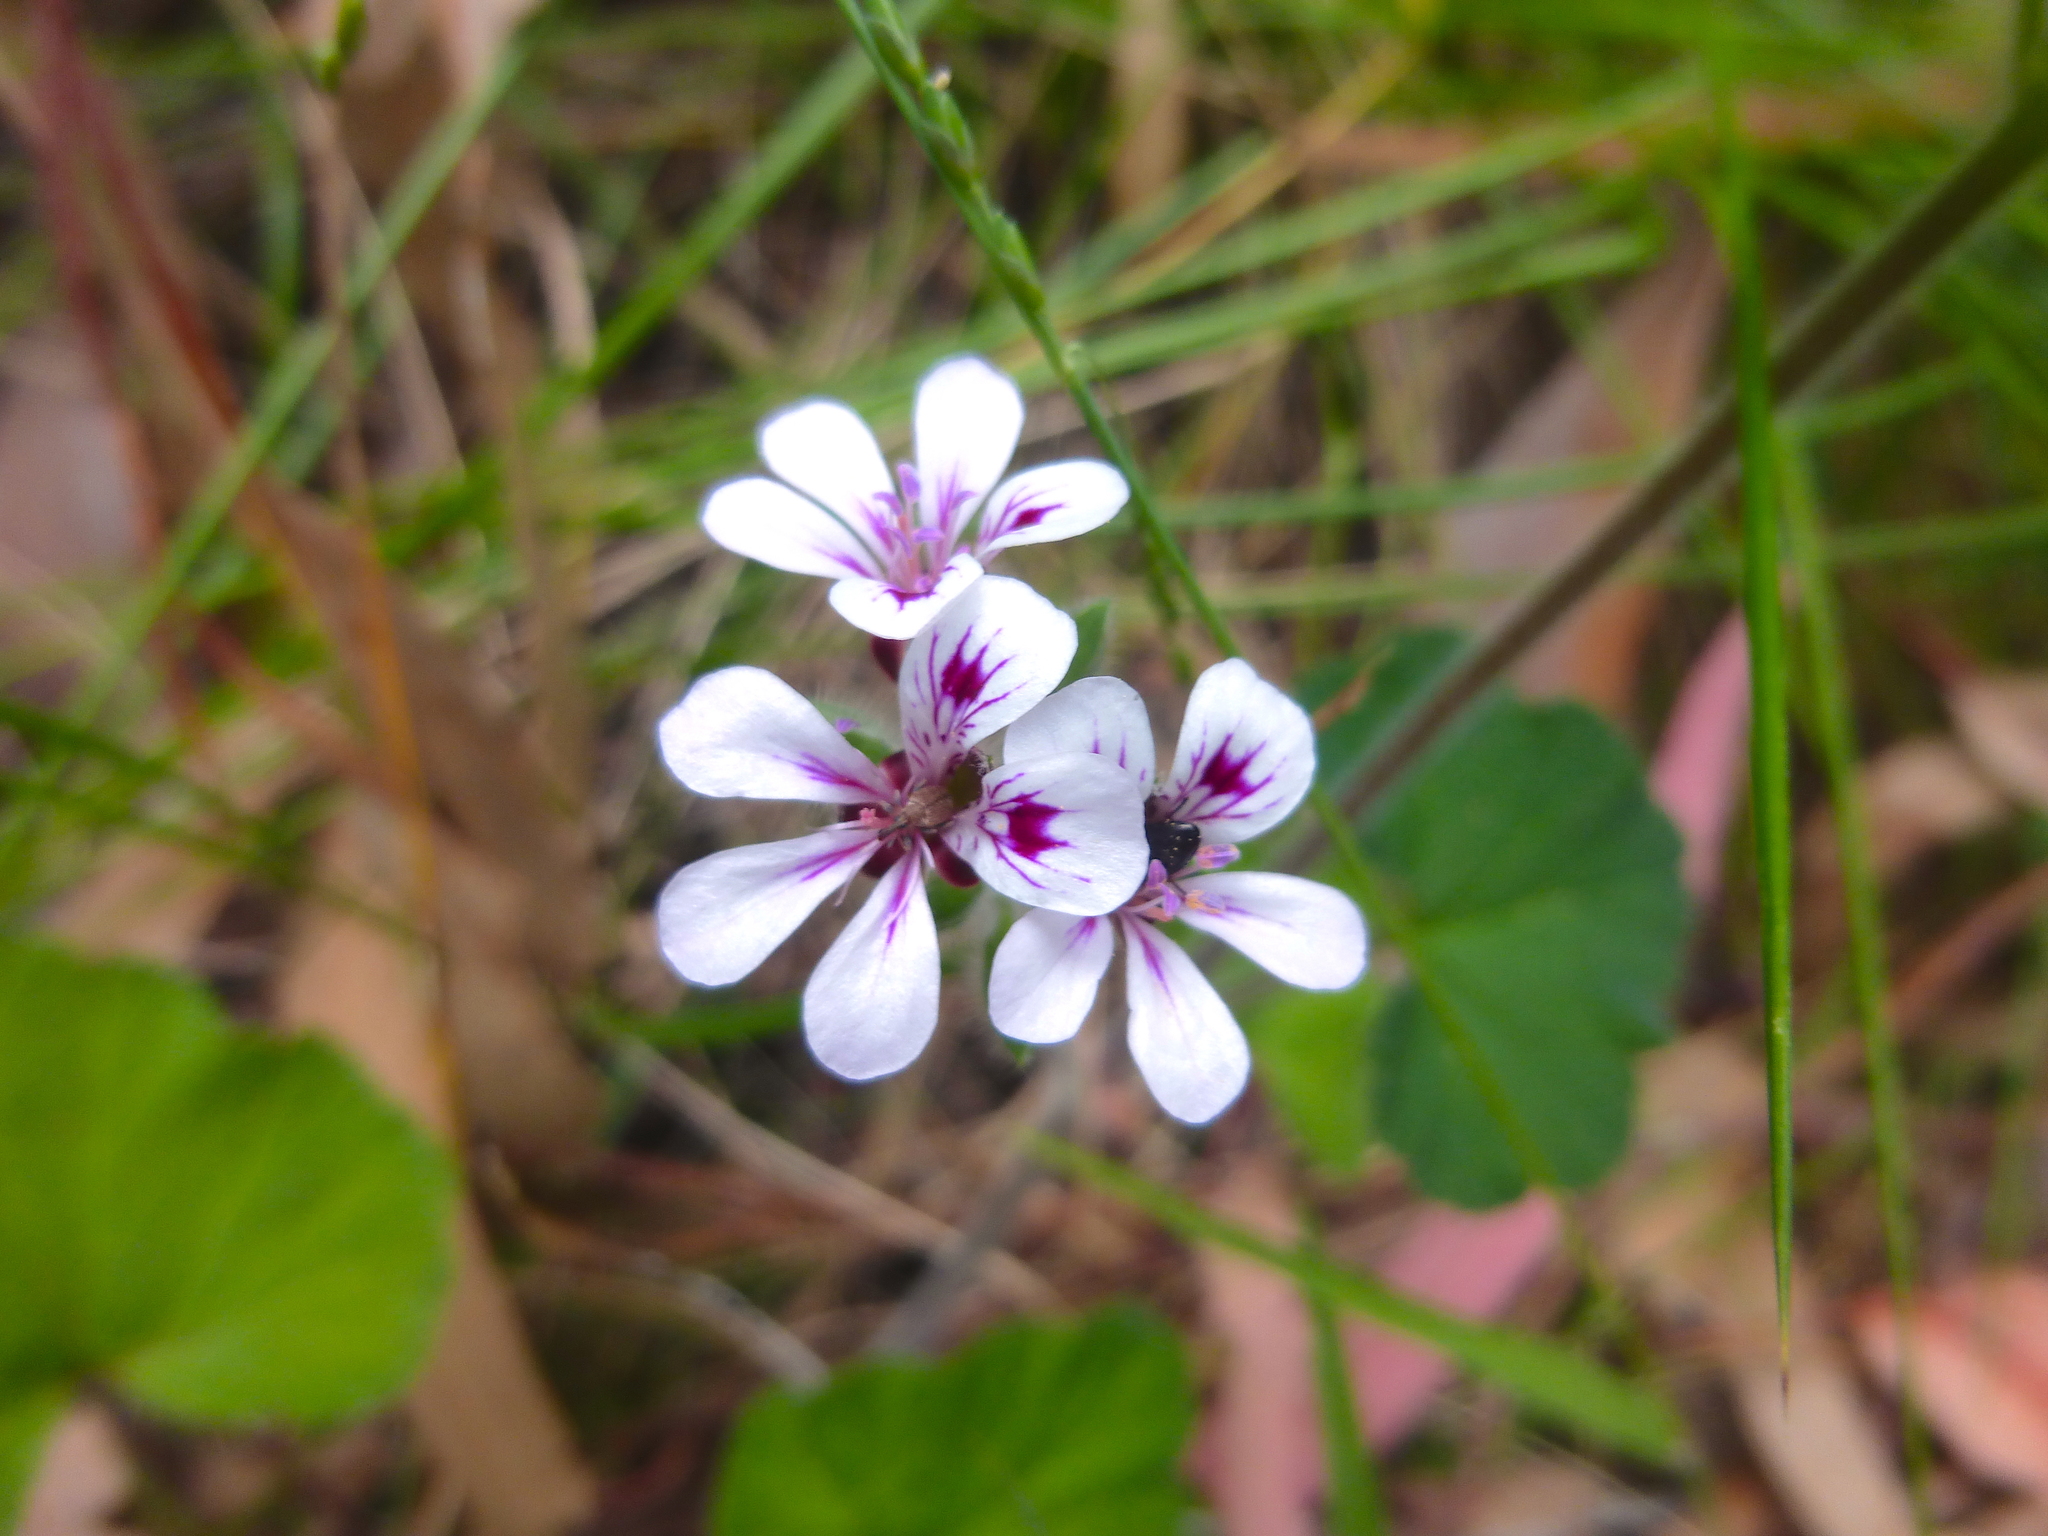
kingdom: Plantae
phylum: Tracheophyta
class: Magnoliopsida
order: Geraniales
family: Geraniaceae
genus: Pelargonium
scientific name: Pelargonium australe
